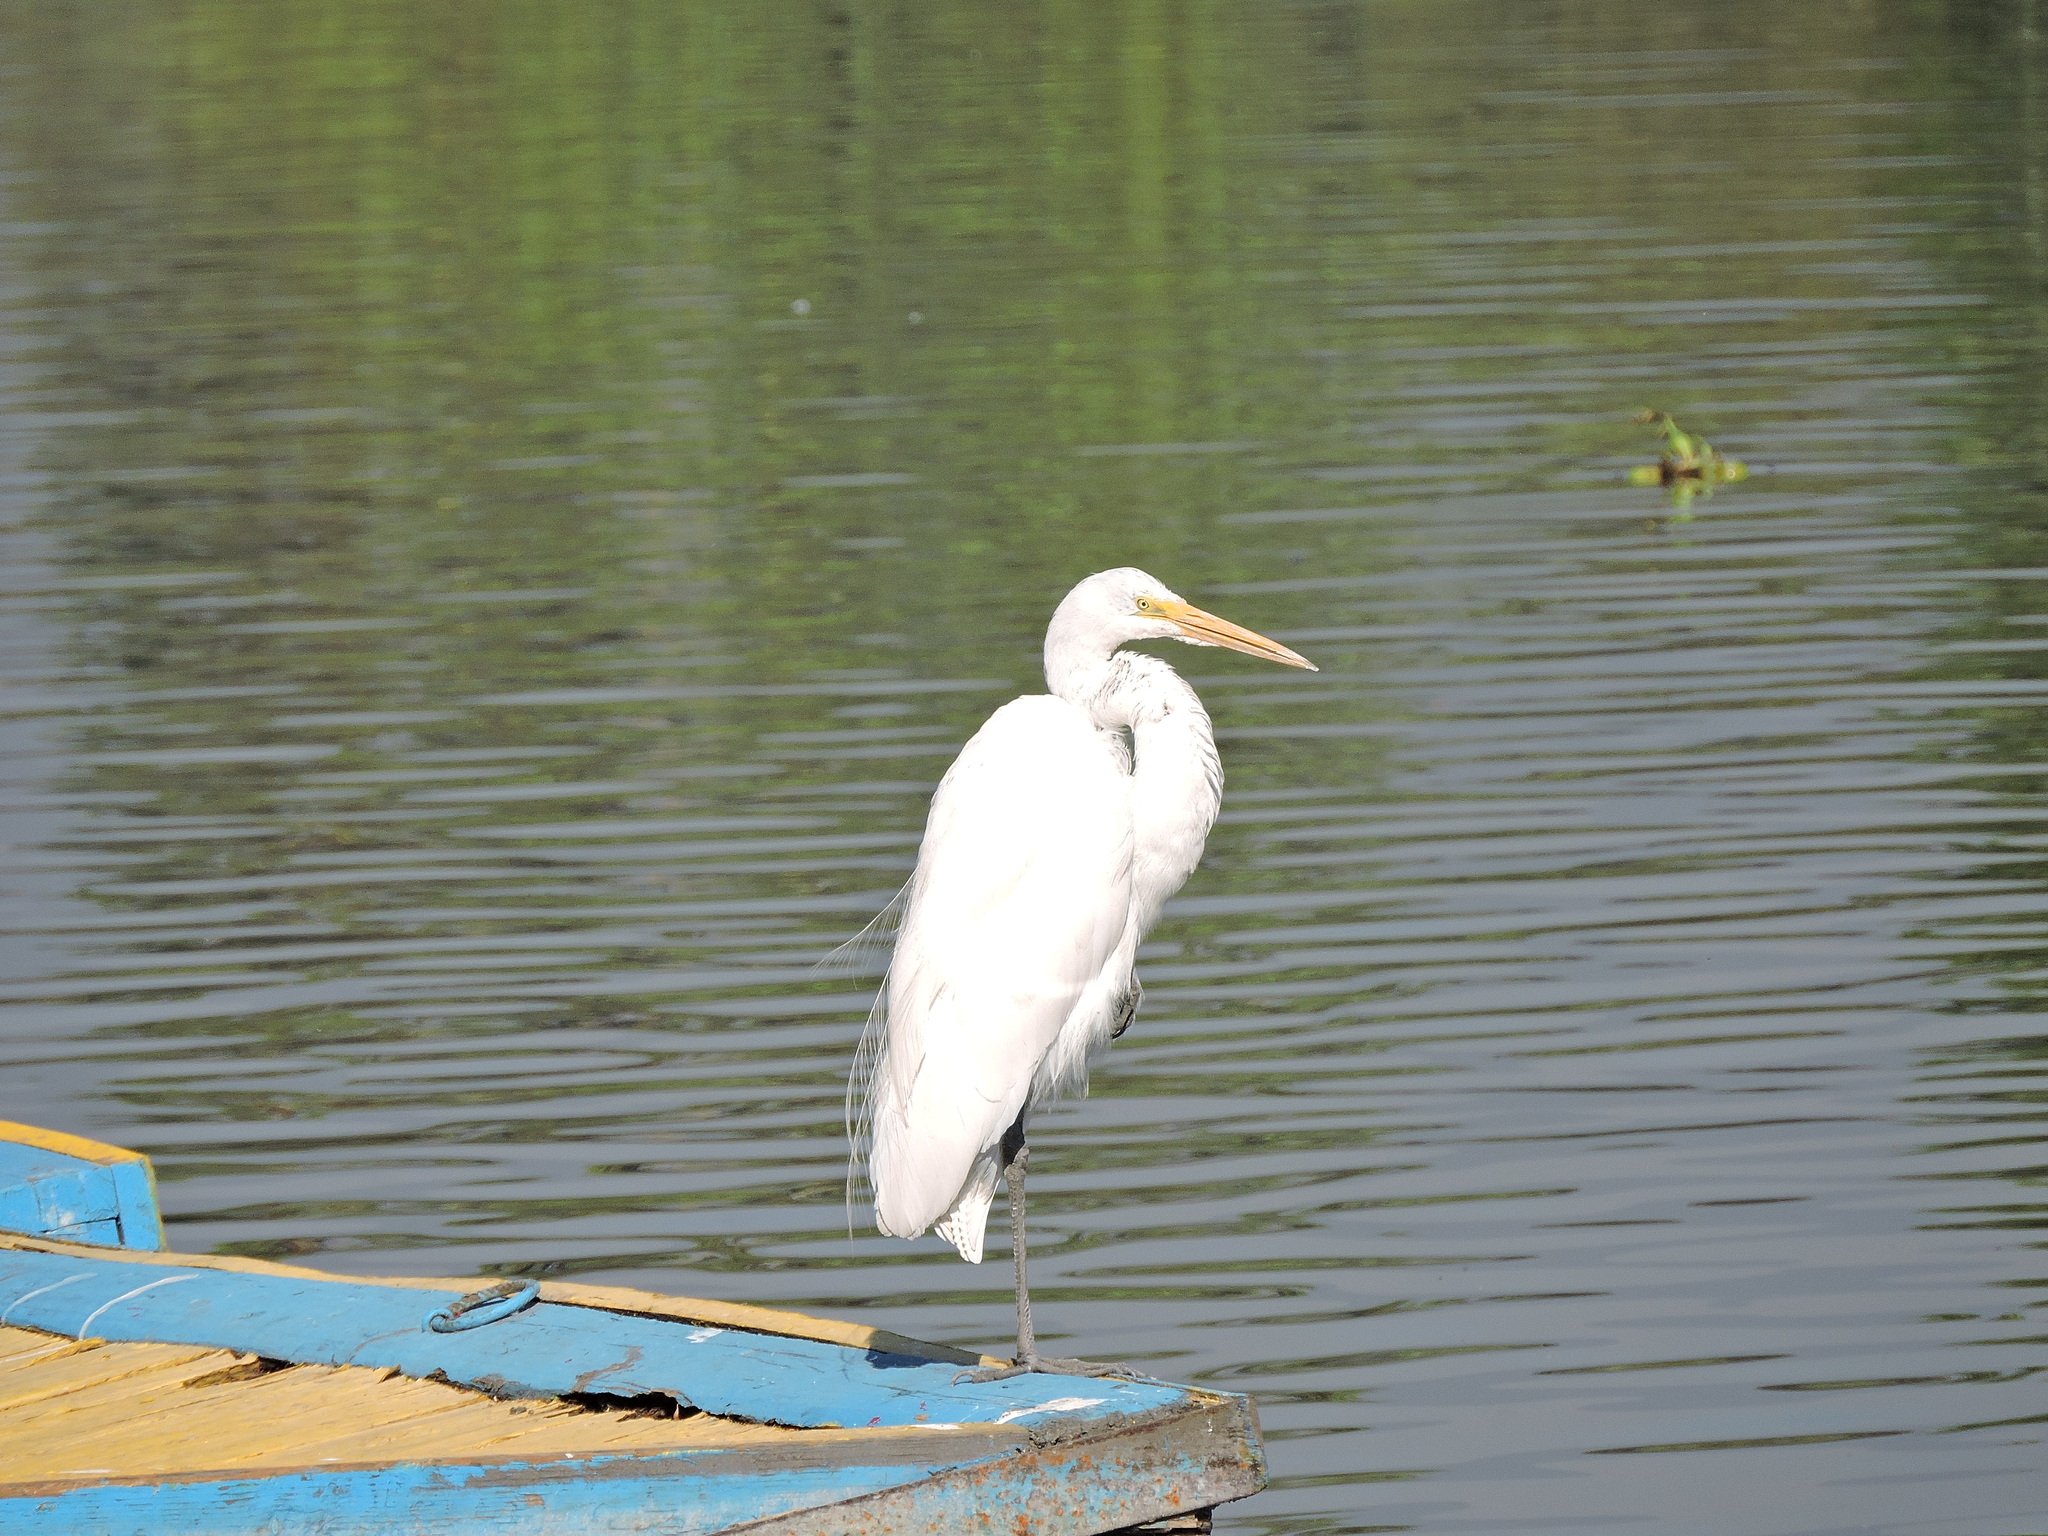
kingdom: Animalia
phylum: Chordata
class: Aves
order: Pelecaniformes
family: Ardeidae
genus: Ardea
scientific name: Ardea alba
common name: Great egret
